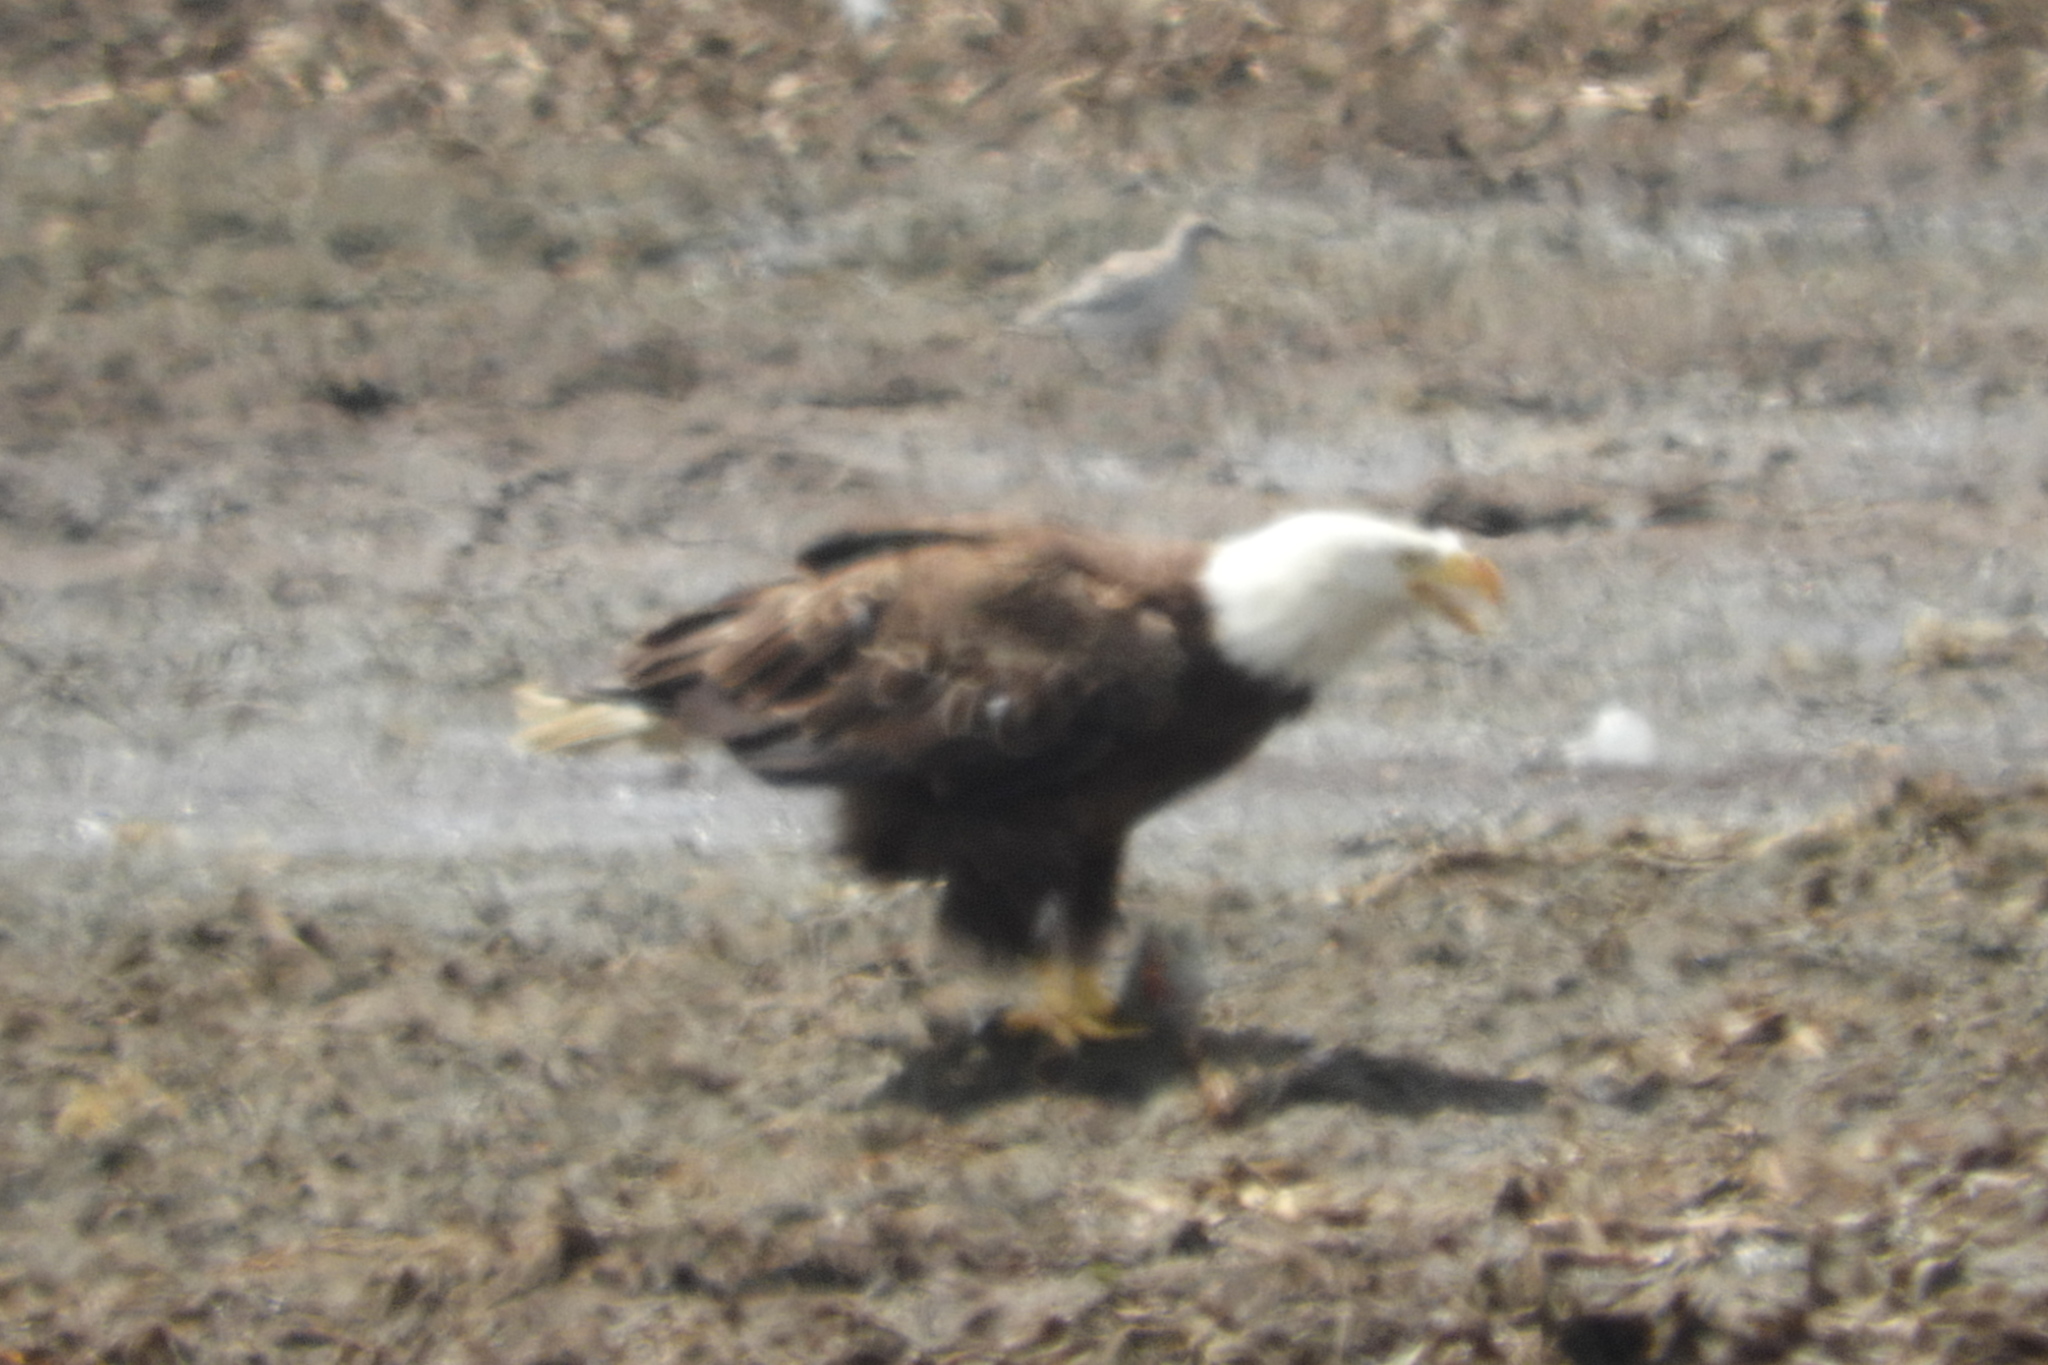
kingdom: Animalia
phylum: Chordata
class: Aves
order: Accipitriformes
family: Accipitridae
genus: Haliaeetus
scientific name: Haliaeetus leucocephalus
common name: Bald eagle
